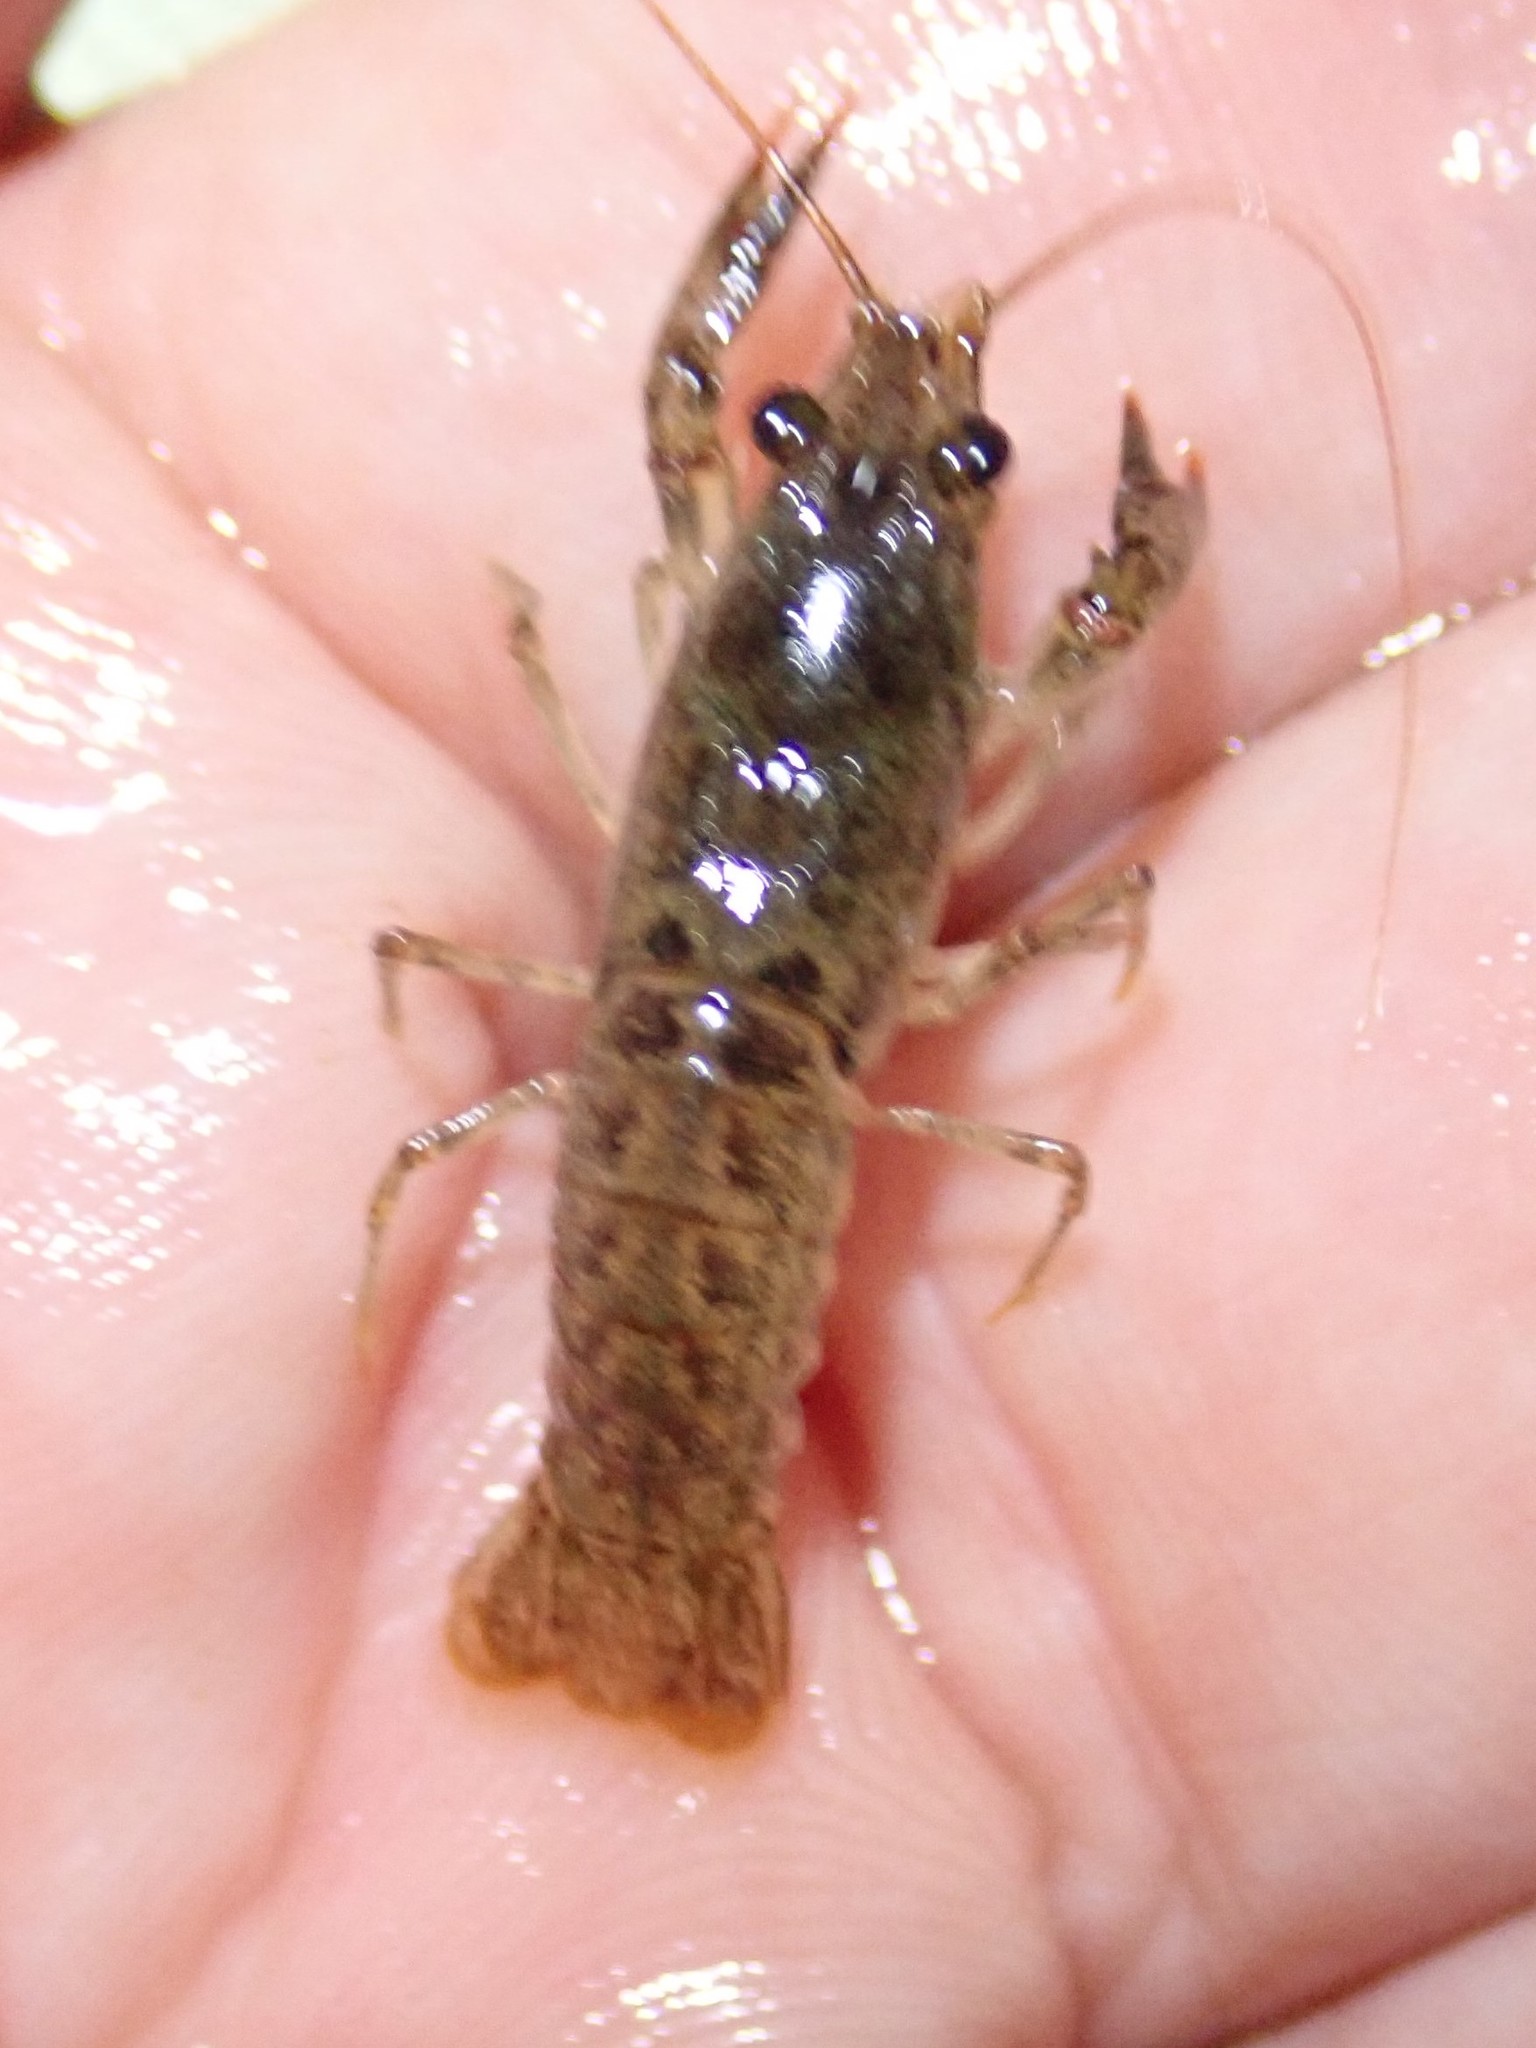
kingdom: Animalia
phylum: Arthropoda
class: Malacostraca
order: Decapoda
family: Cambaridae
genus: Faxonius
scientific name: Faxonius virilis
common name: Virile crayfish
